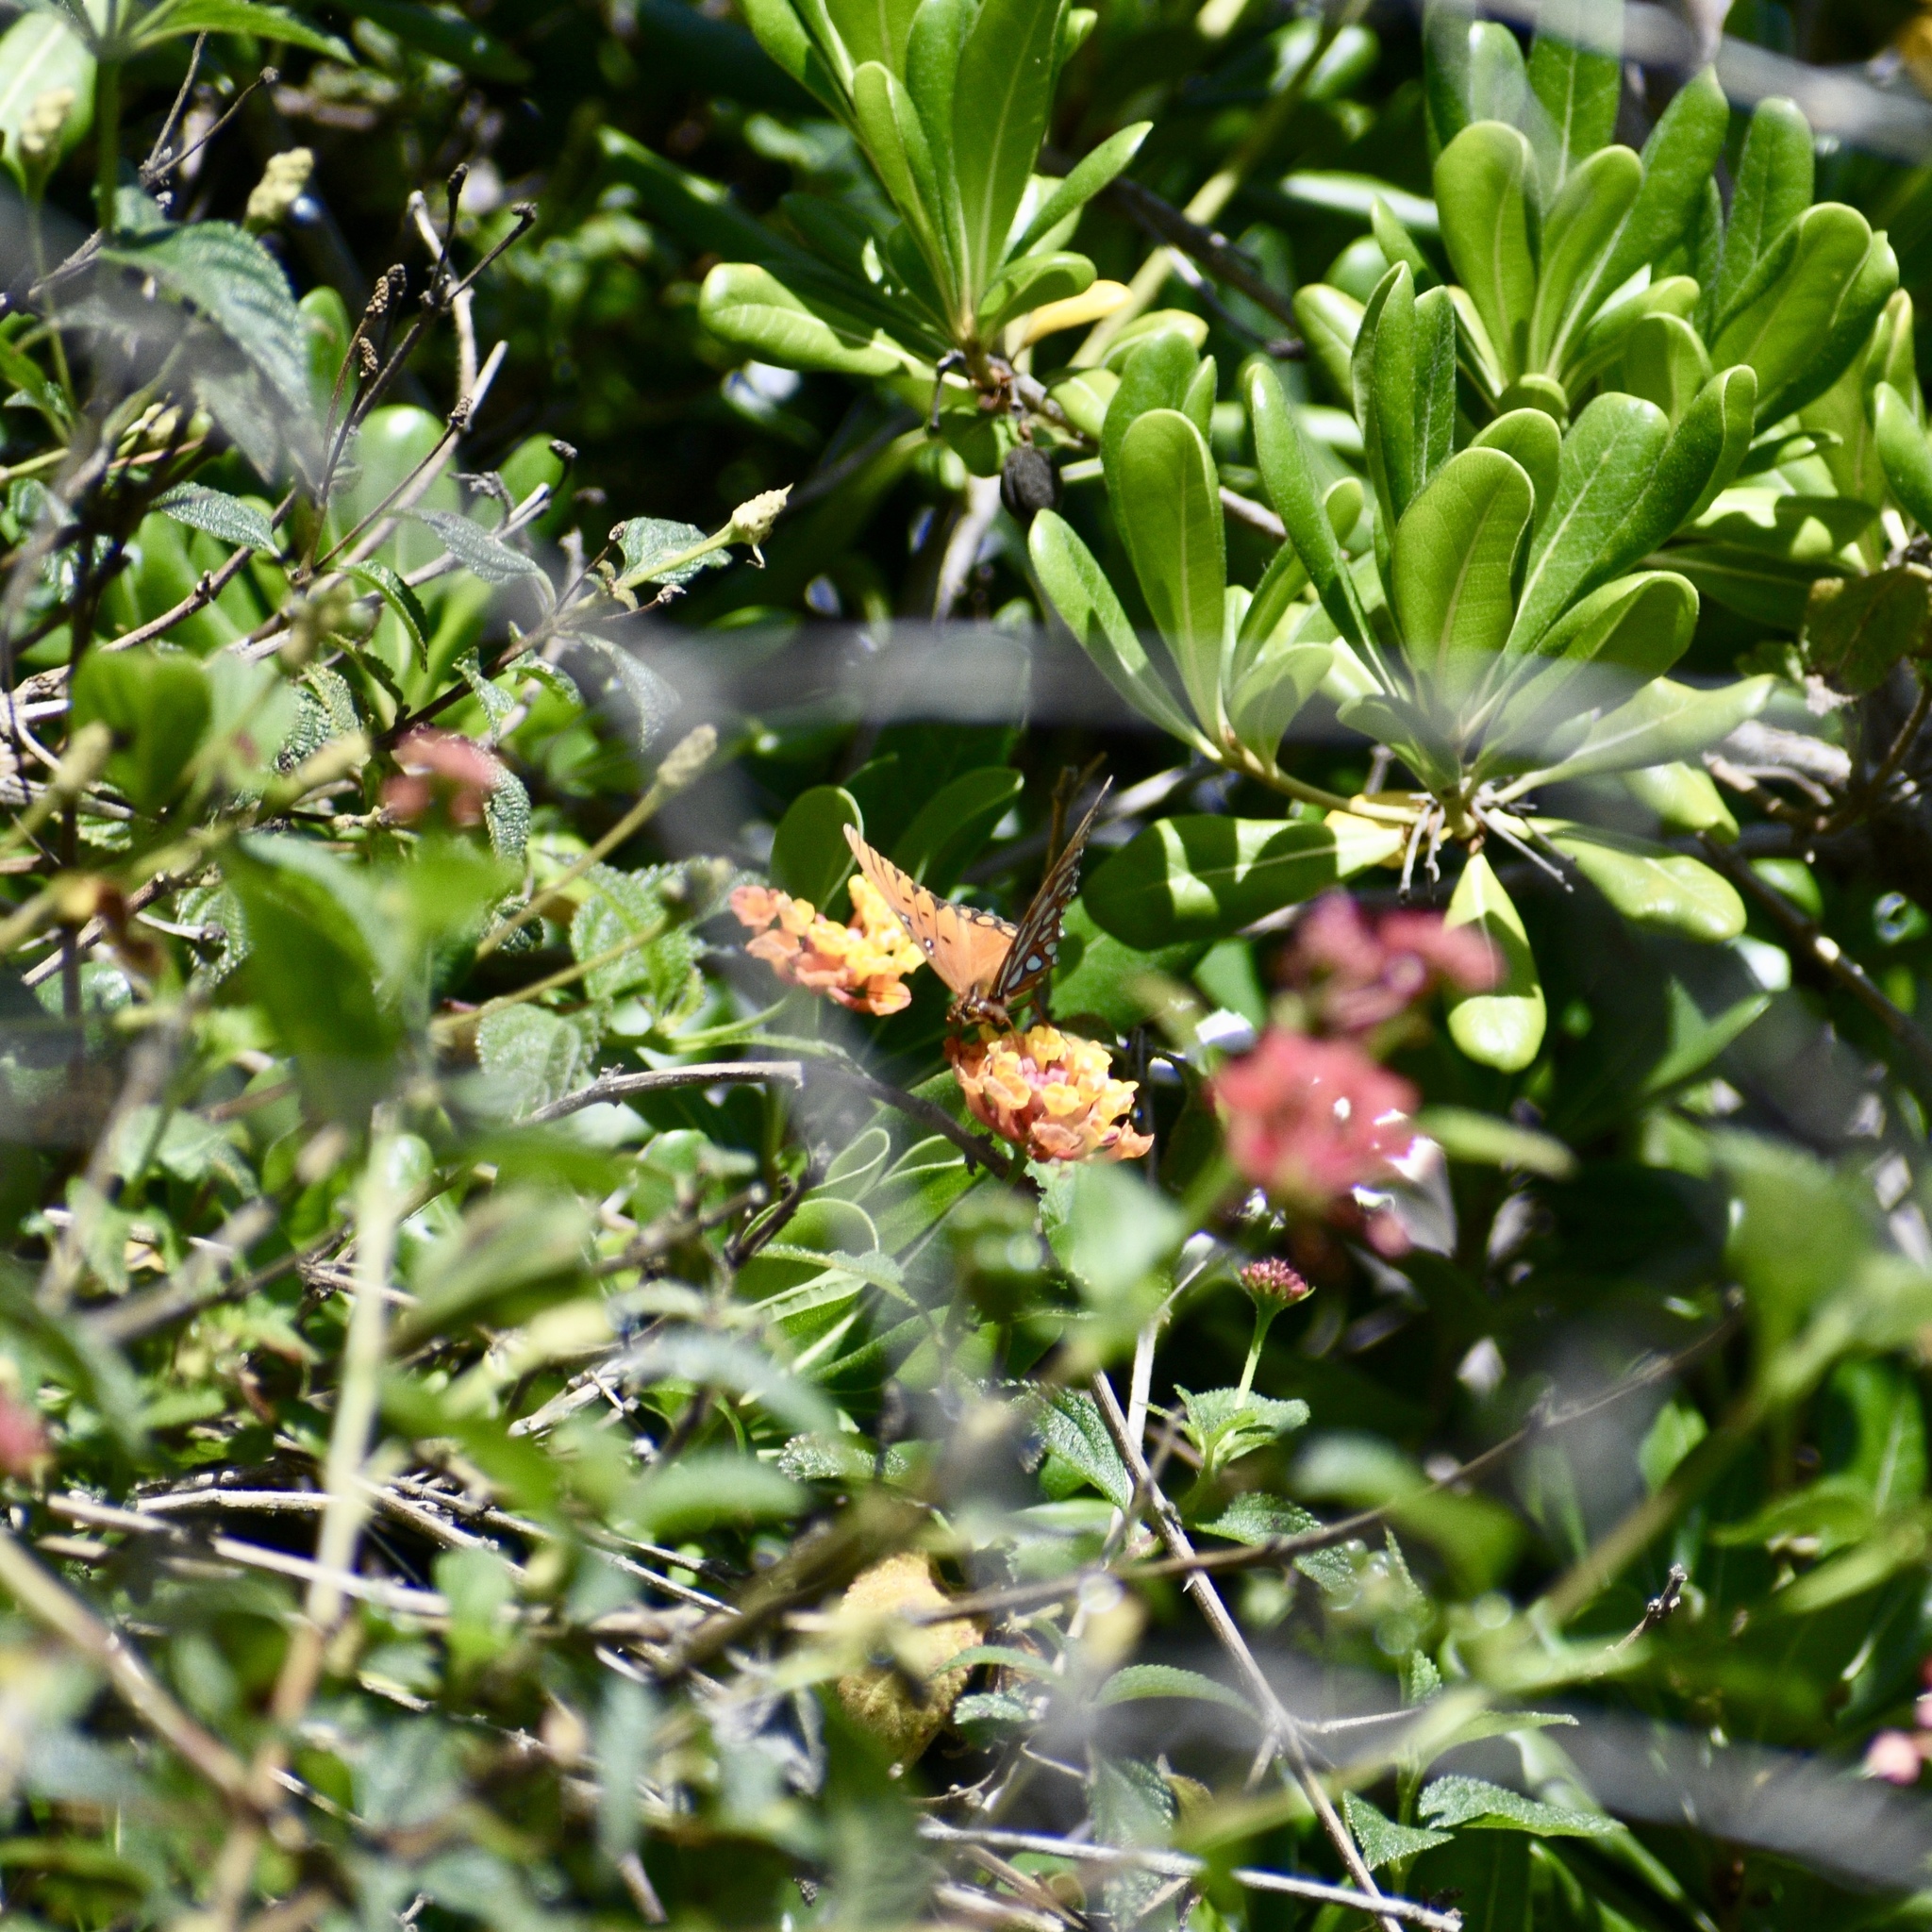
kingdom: Animalia
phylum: Arthropoda
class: Insecta
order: Lepidoptera
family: Nymphalidae
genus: Dione
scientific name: Dione vanillae
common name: Gulf fritillary
